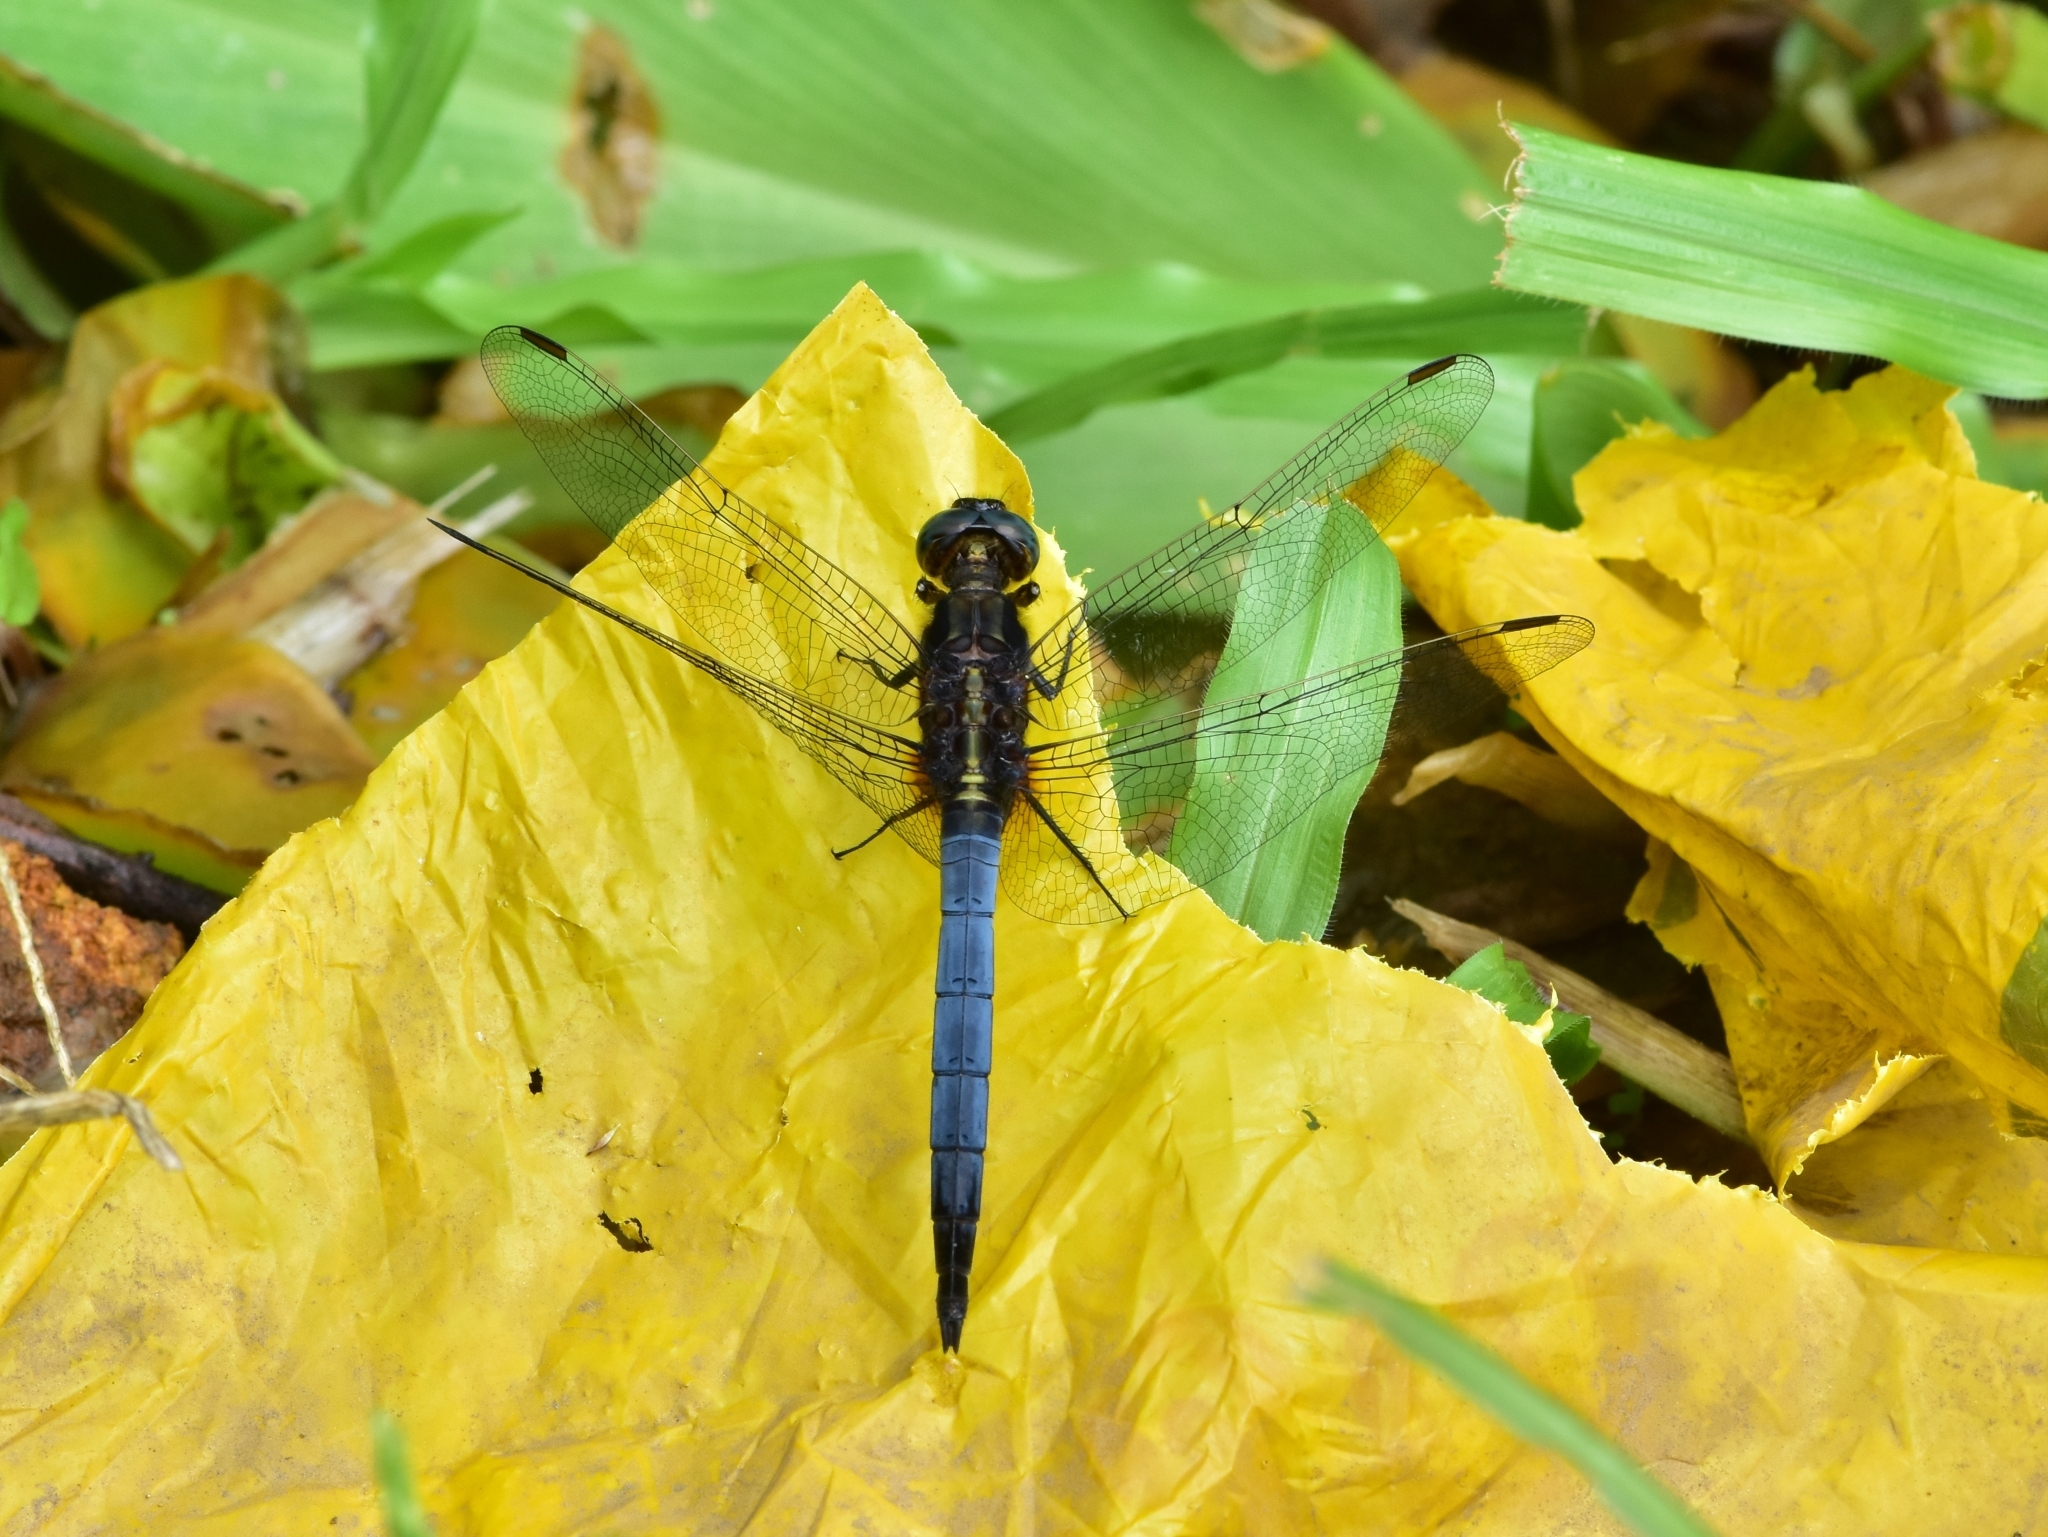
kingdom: Animalia
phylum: Arthropoda
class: Insecta
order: Odonata
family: Libellulidae
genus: Orthetrum
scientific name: Orthetrum glaucum
